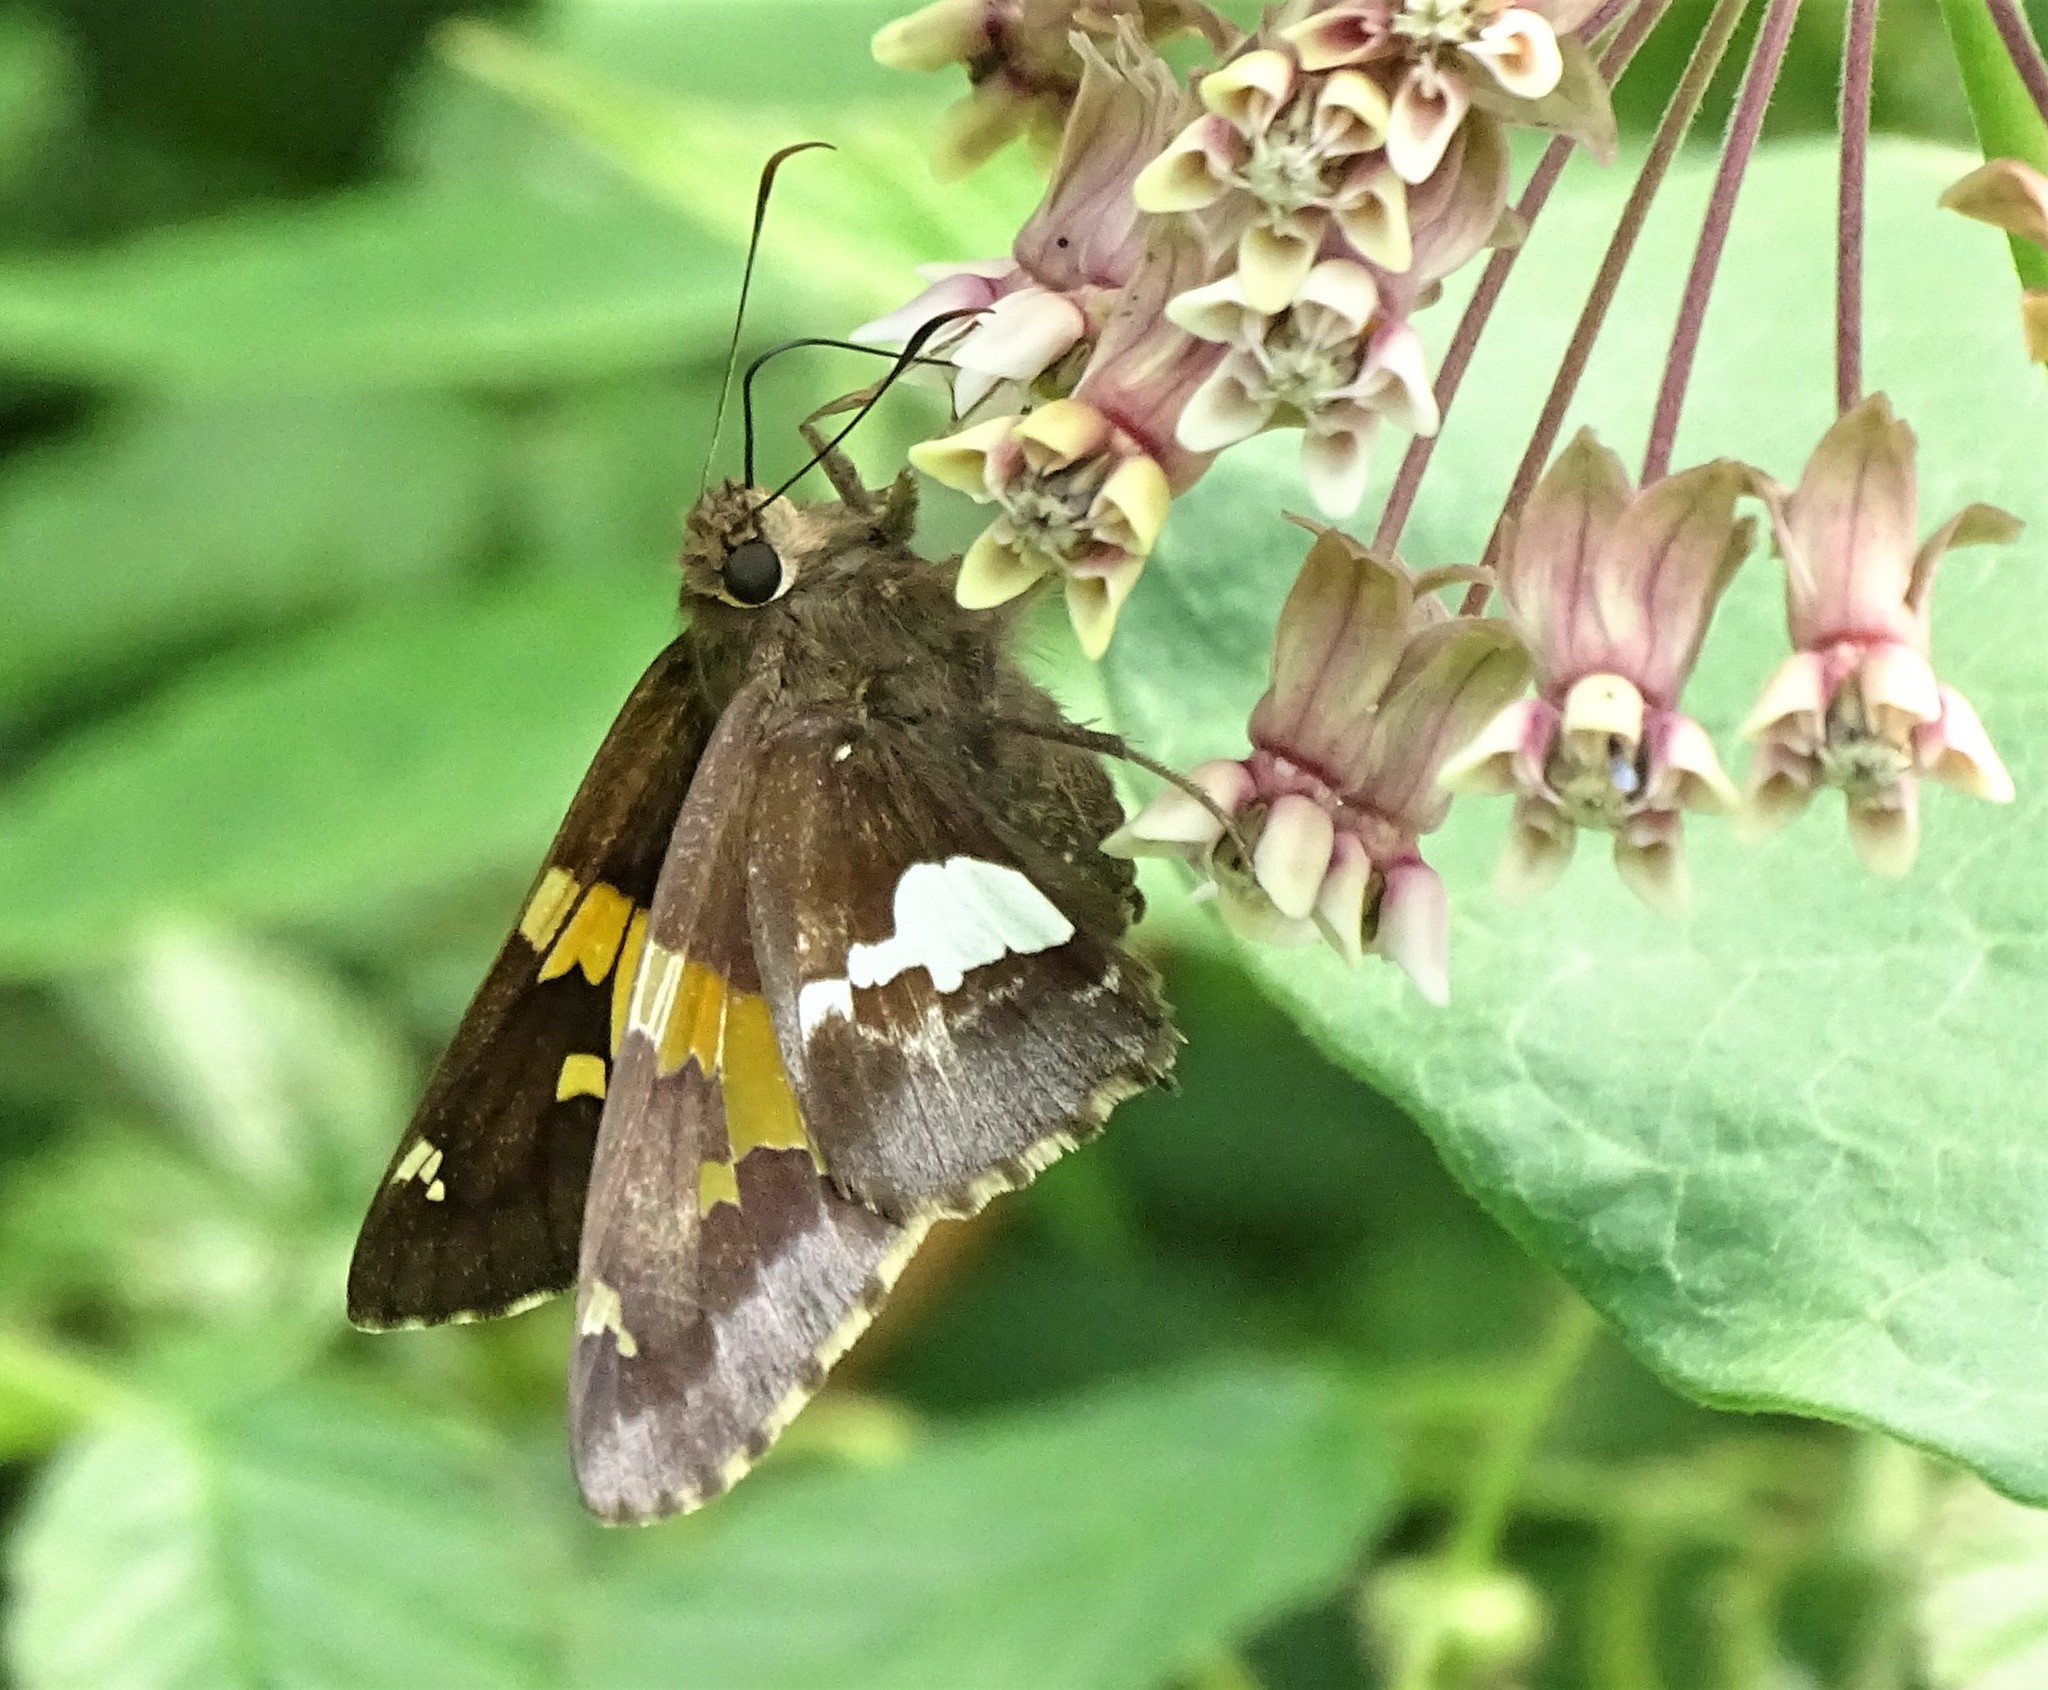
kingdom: Animalia
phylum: Arthropoda
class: Insecta
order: Lepidoptera
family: Hesperiidae
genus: Epargyreus
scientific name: Epargyreus clarus
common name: Silver-spotted skipper
